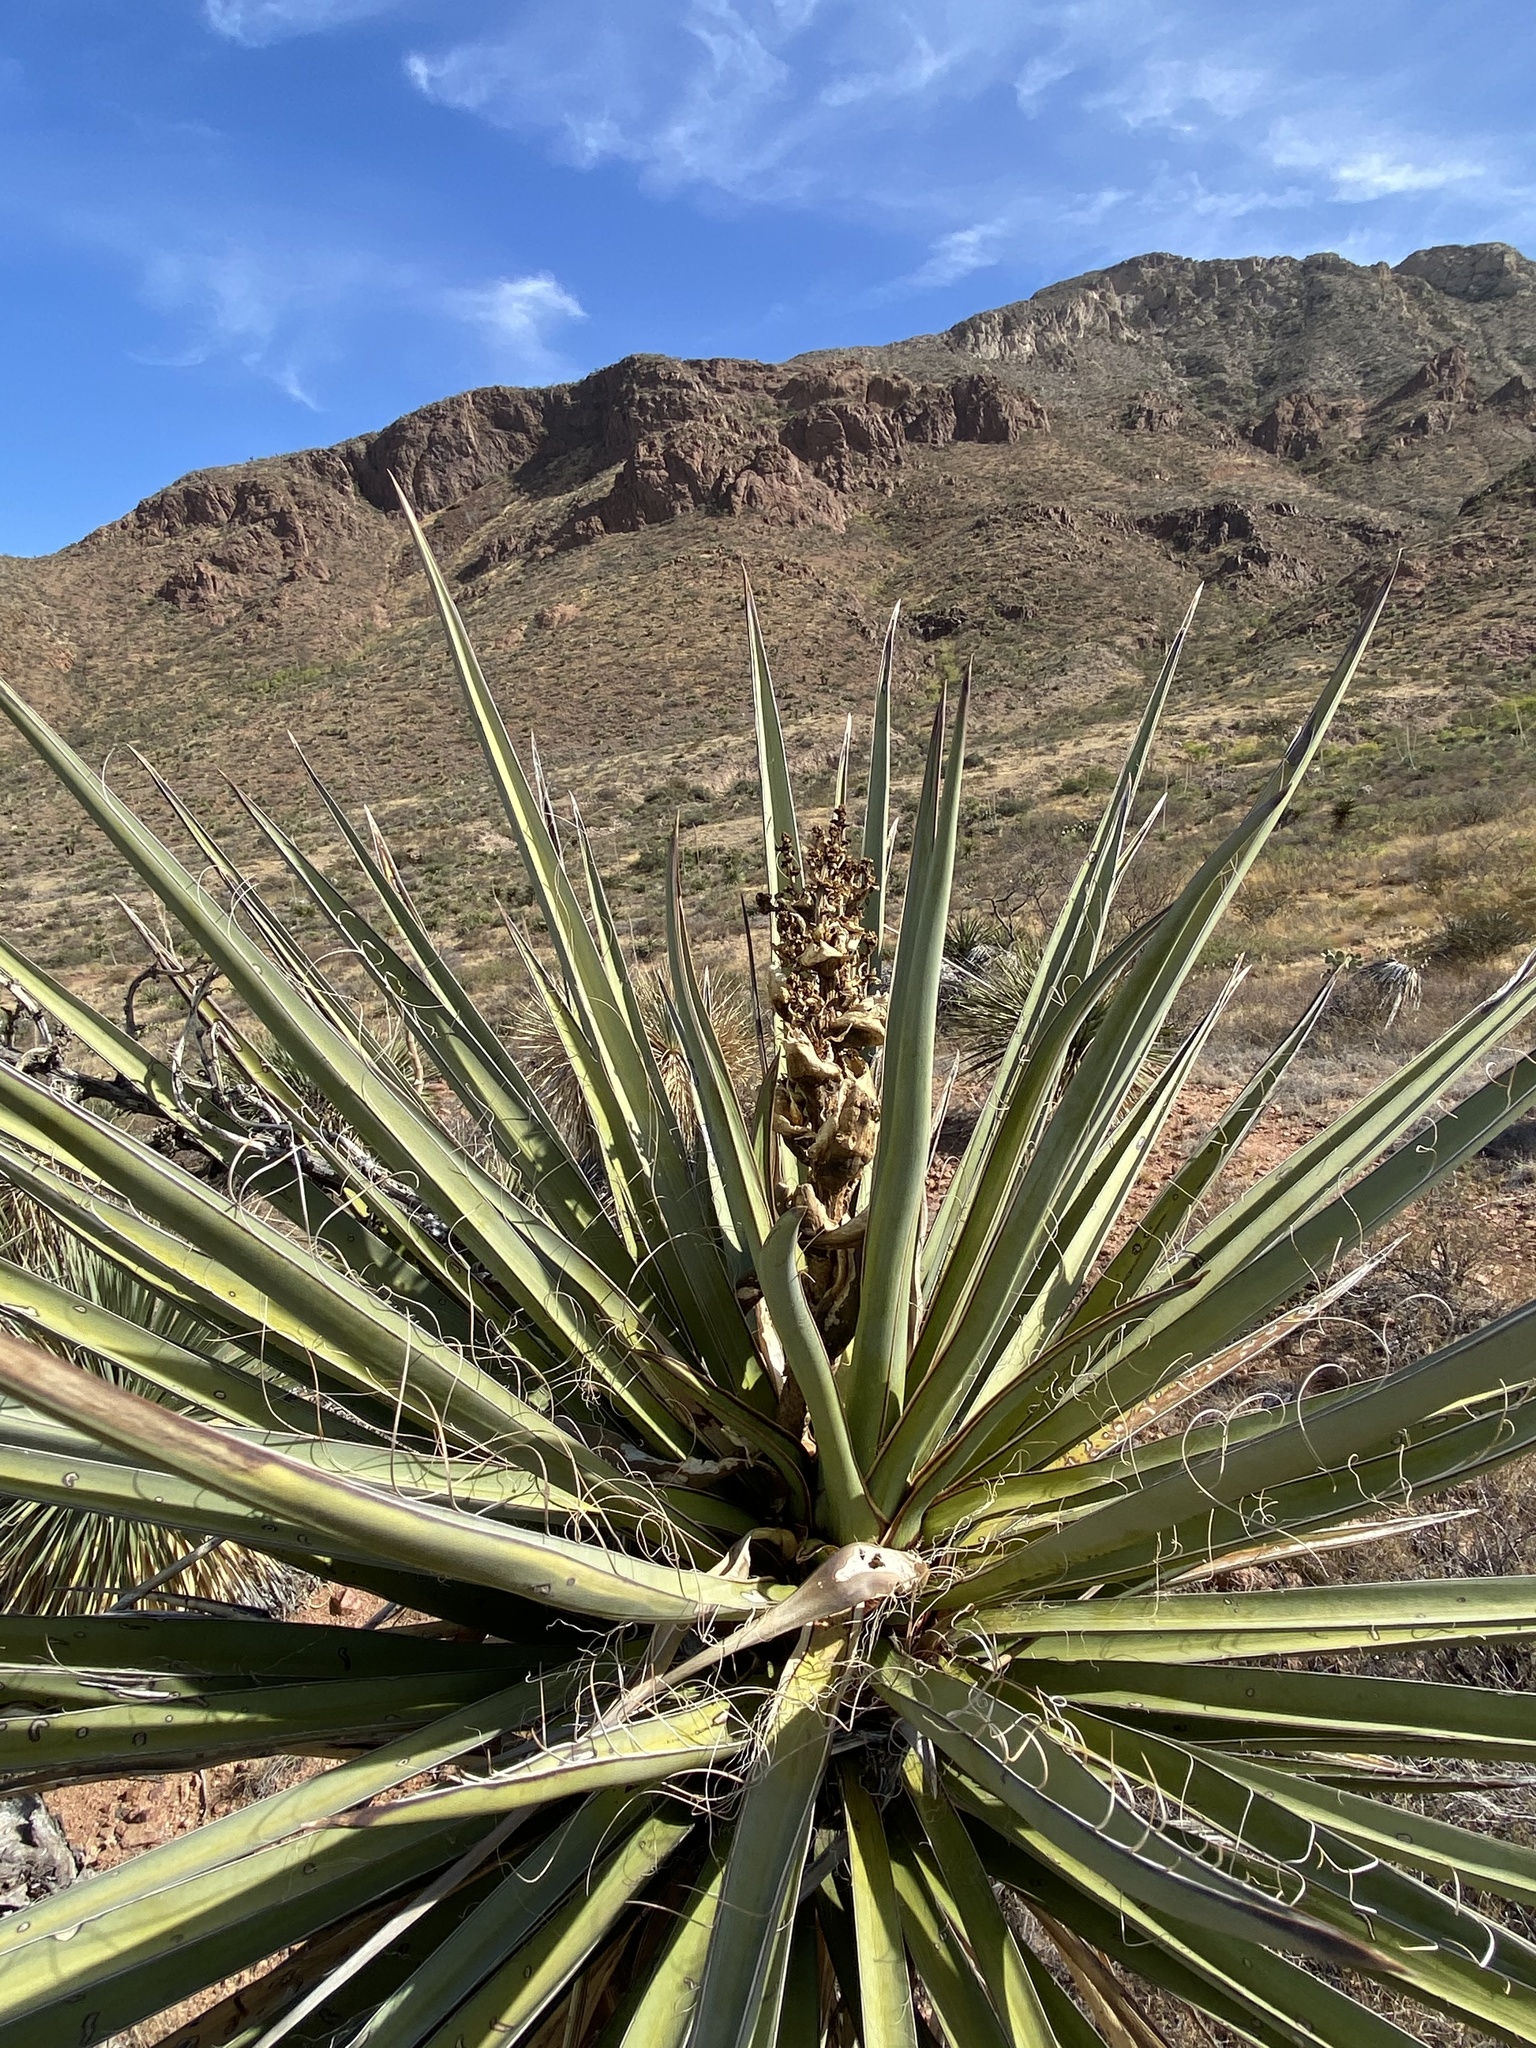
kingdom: Plantae
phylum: Tracheophyta
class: Liliopsida
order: Asparagales
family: Asparagaceae
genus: Yucca
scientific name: Yucca treculiana
